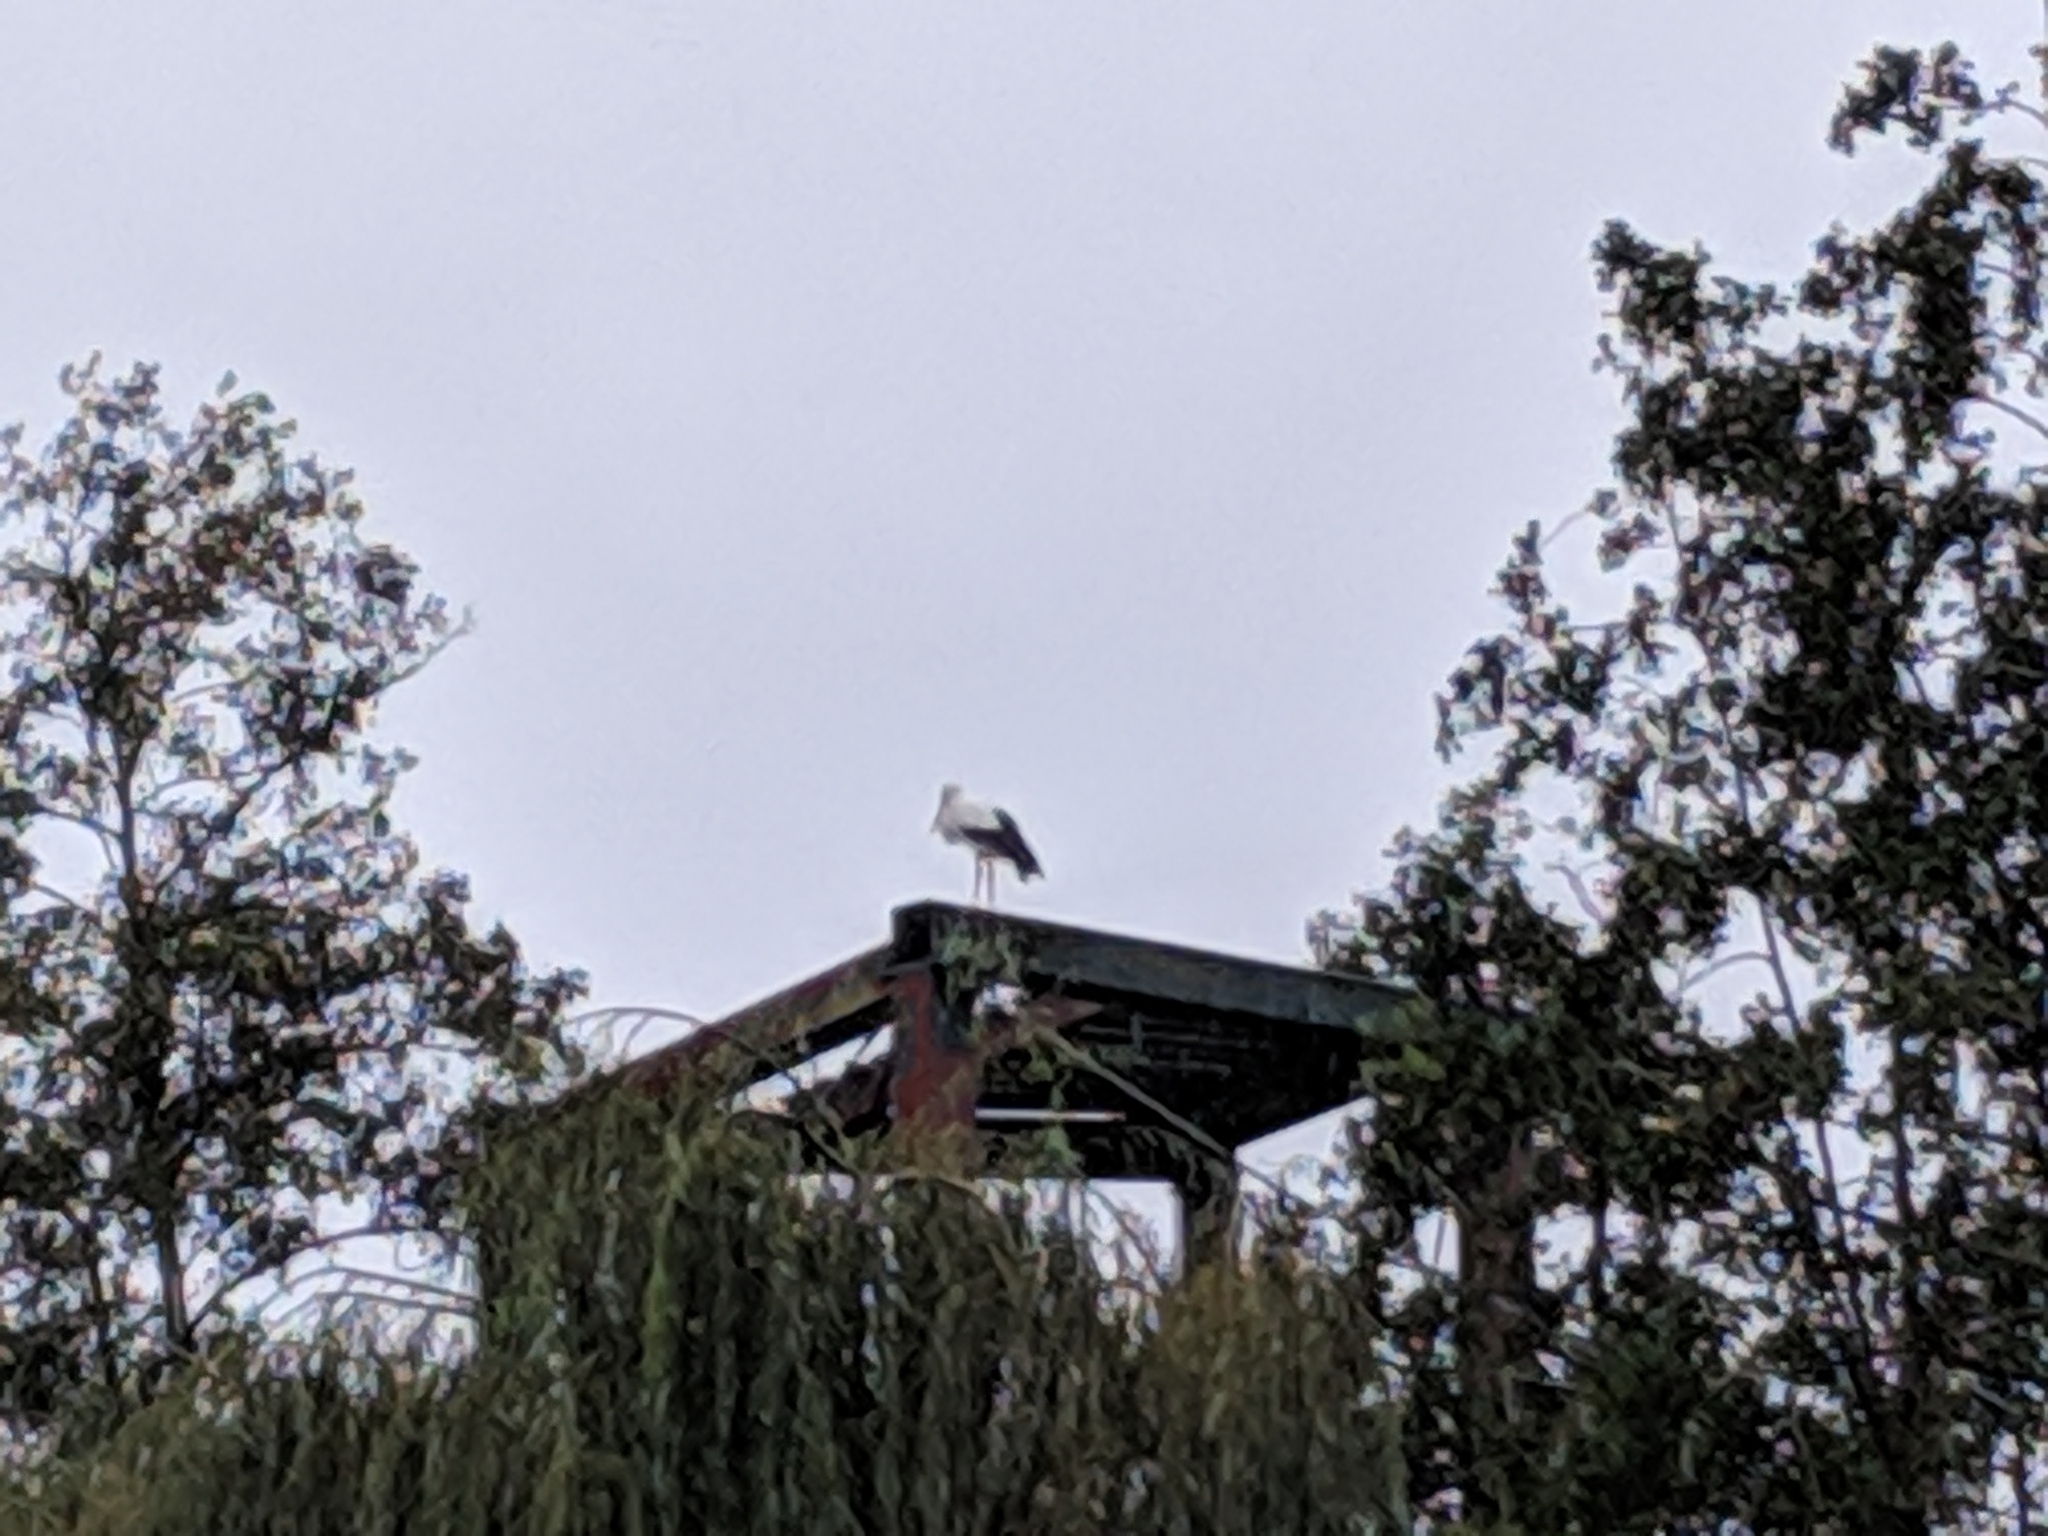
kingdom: Animalia
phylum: Chordata
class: Aves
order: Ciconiiformes
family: Ciconiidae
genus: Ciconia
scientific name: Ciconia ciconia
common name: White stork
